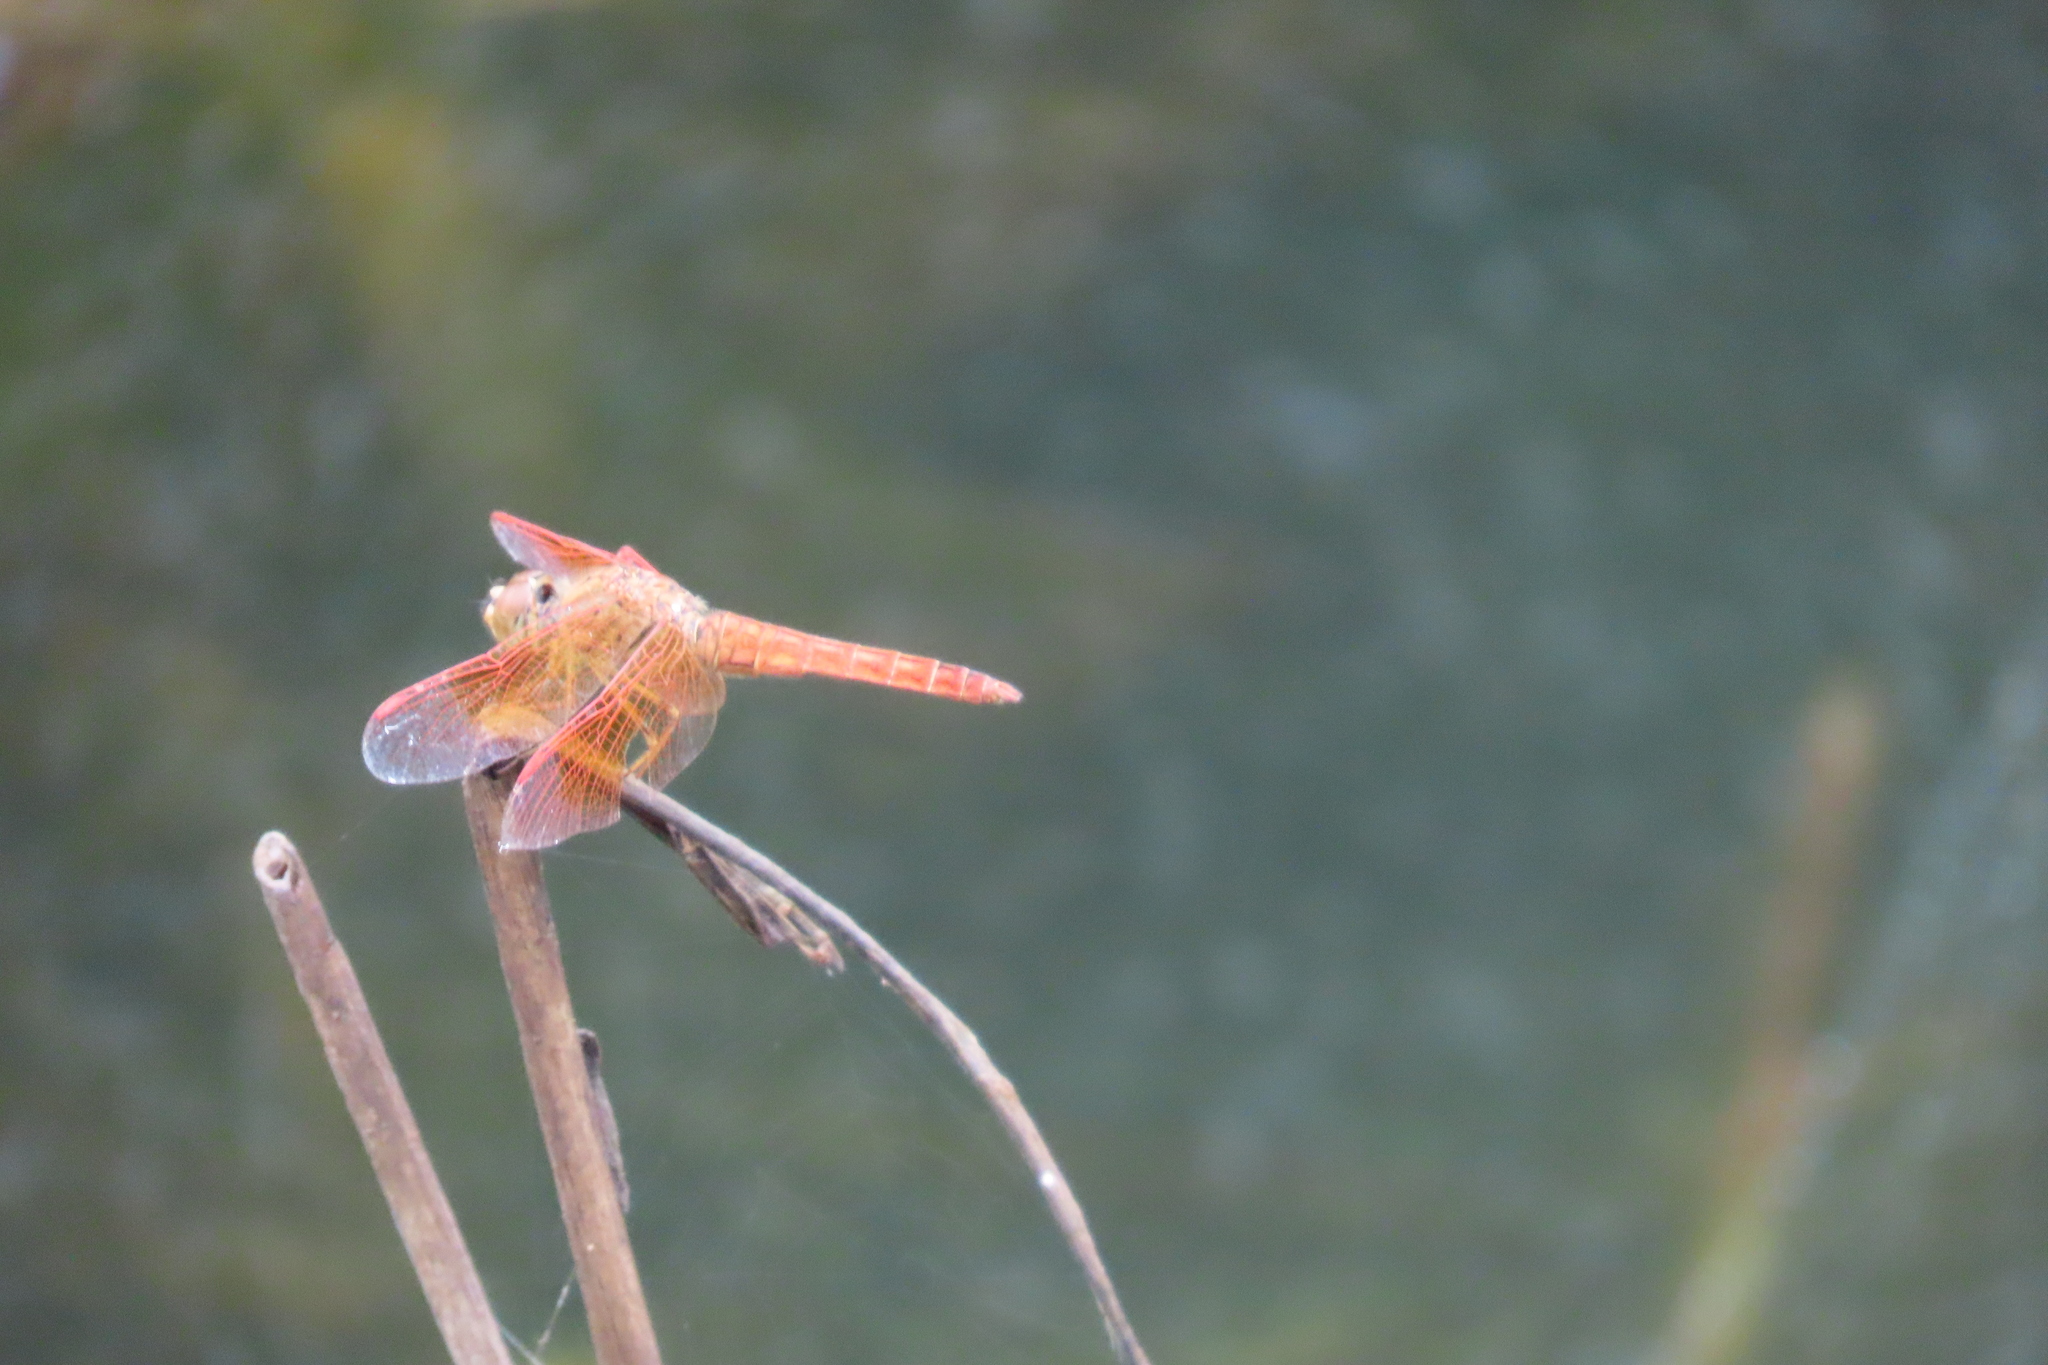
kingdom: Animalia
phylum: Arthropoda
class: Insecta
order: Odonata
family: Libellulidae
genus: Brachythemis
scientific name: Brachythemis contaminata
